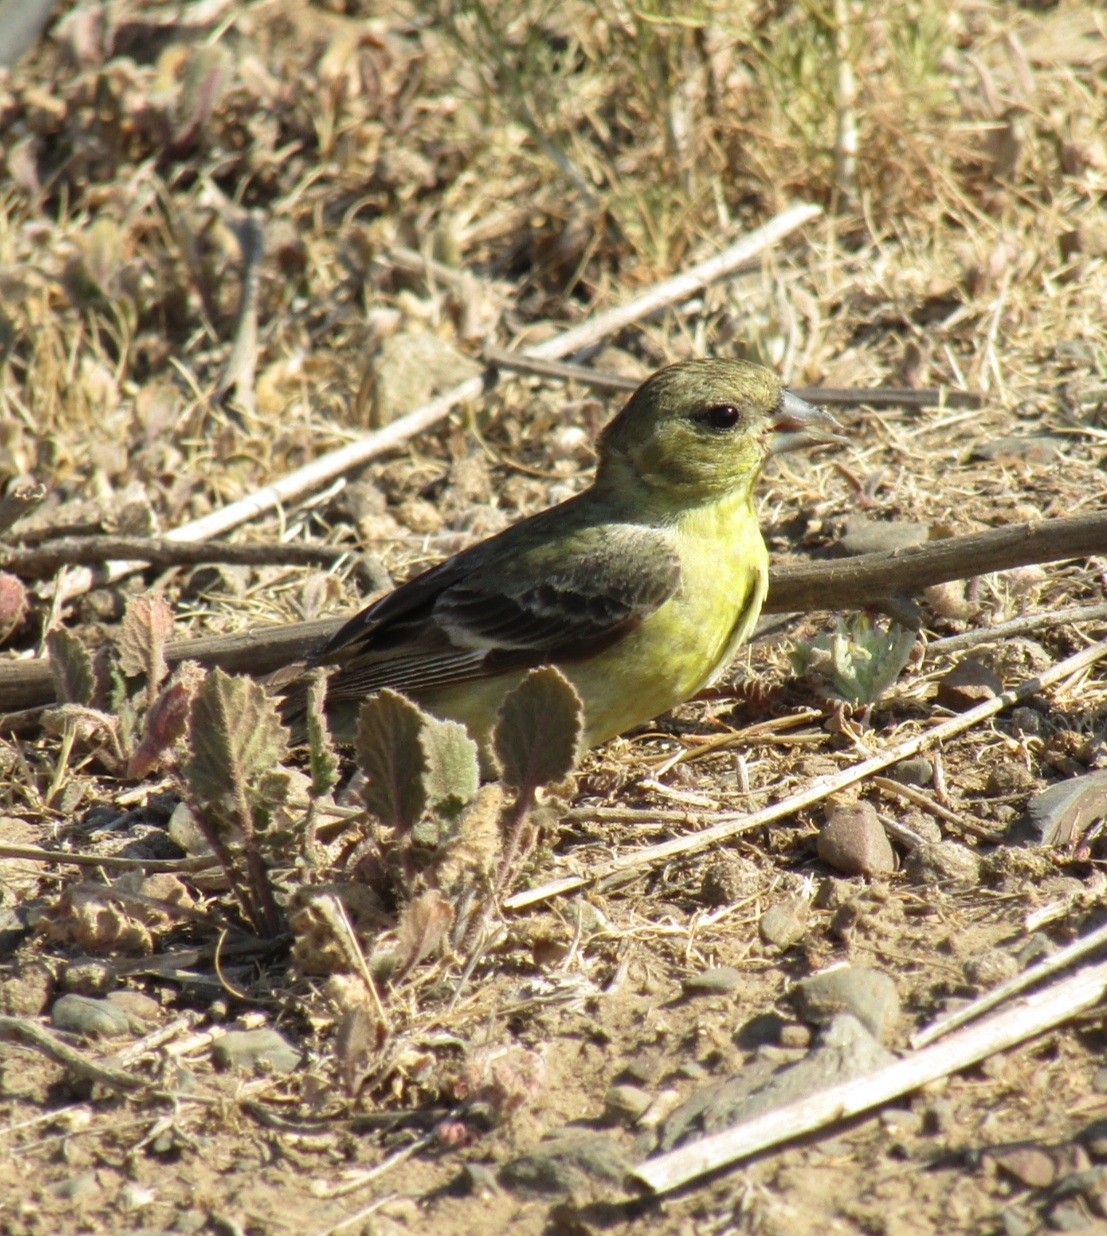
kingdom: Animalia
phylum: Chordata
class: Aves
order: Passeriformes
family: Fringillidae
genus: Spinus
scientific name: Spinus psaltria
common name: Lesser goldfinch
